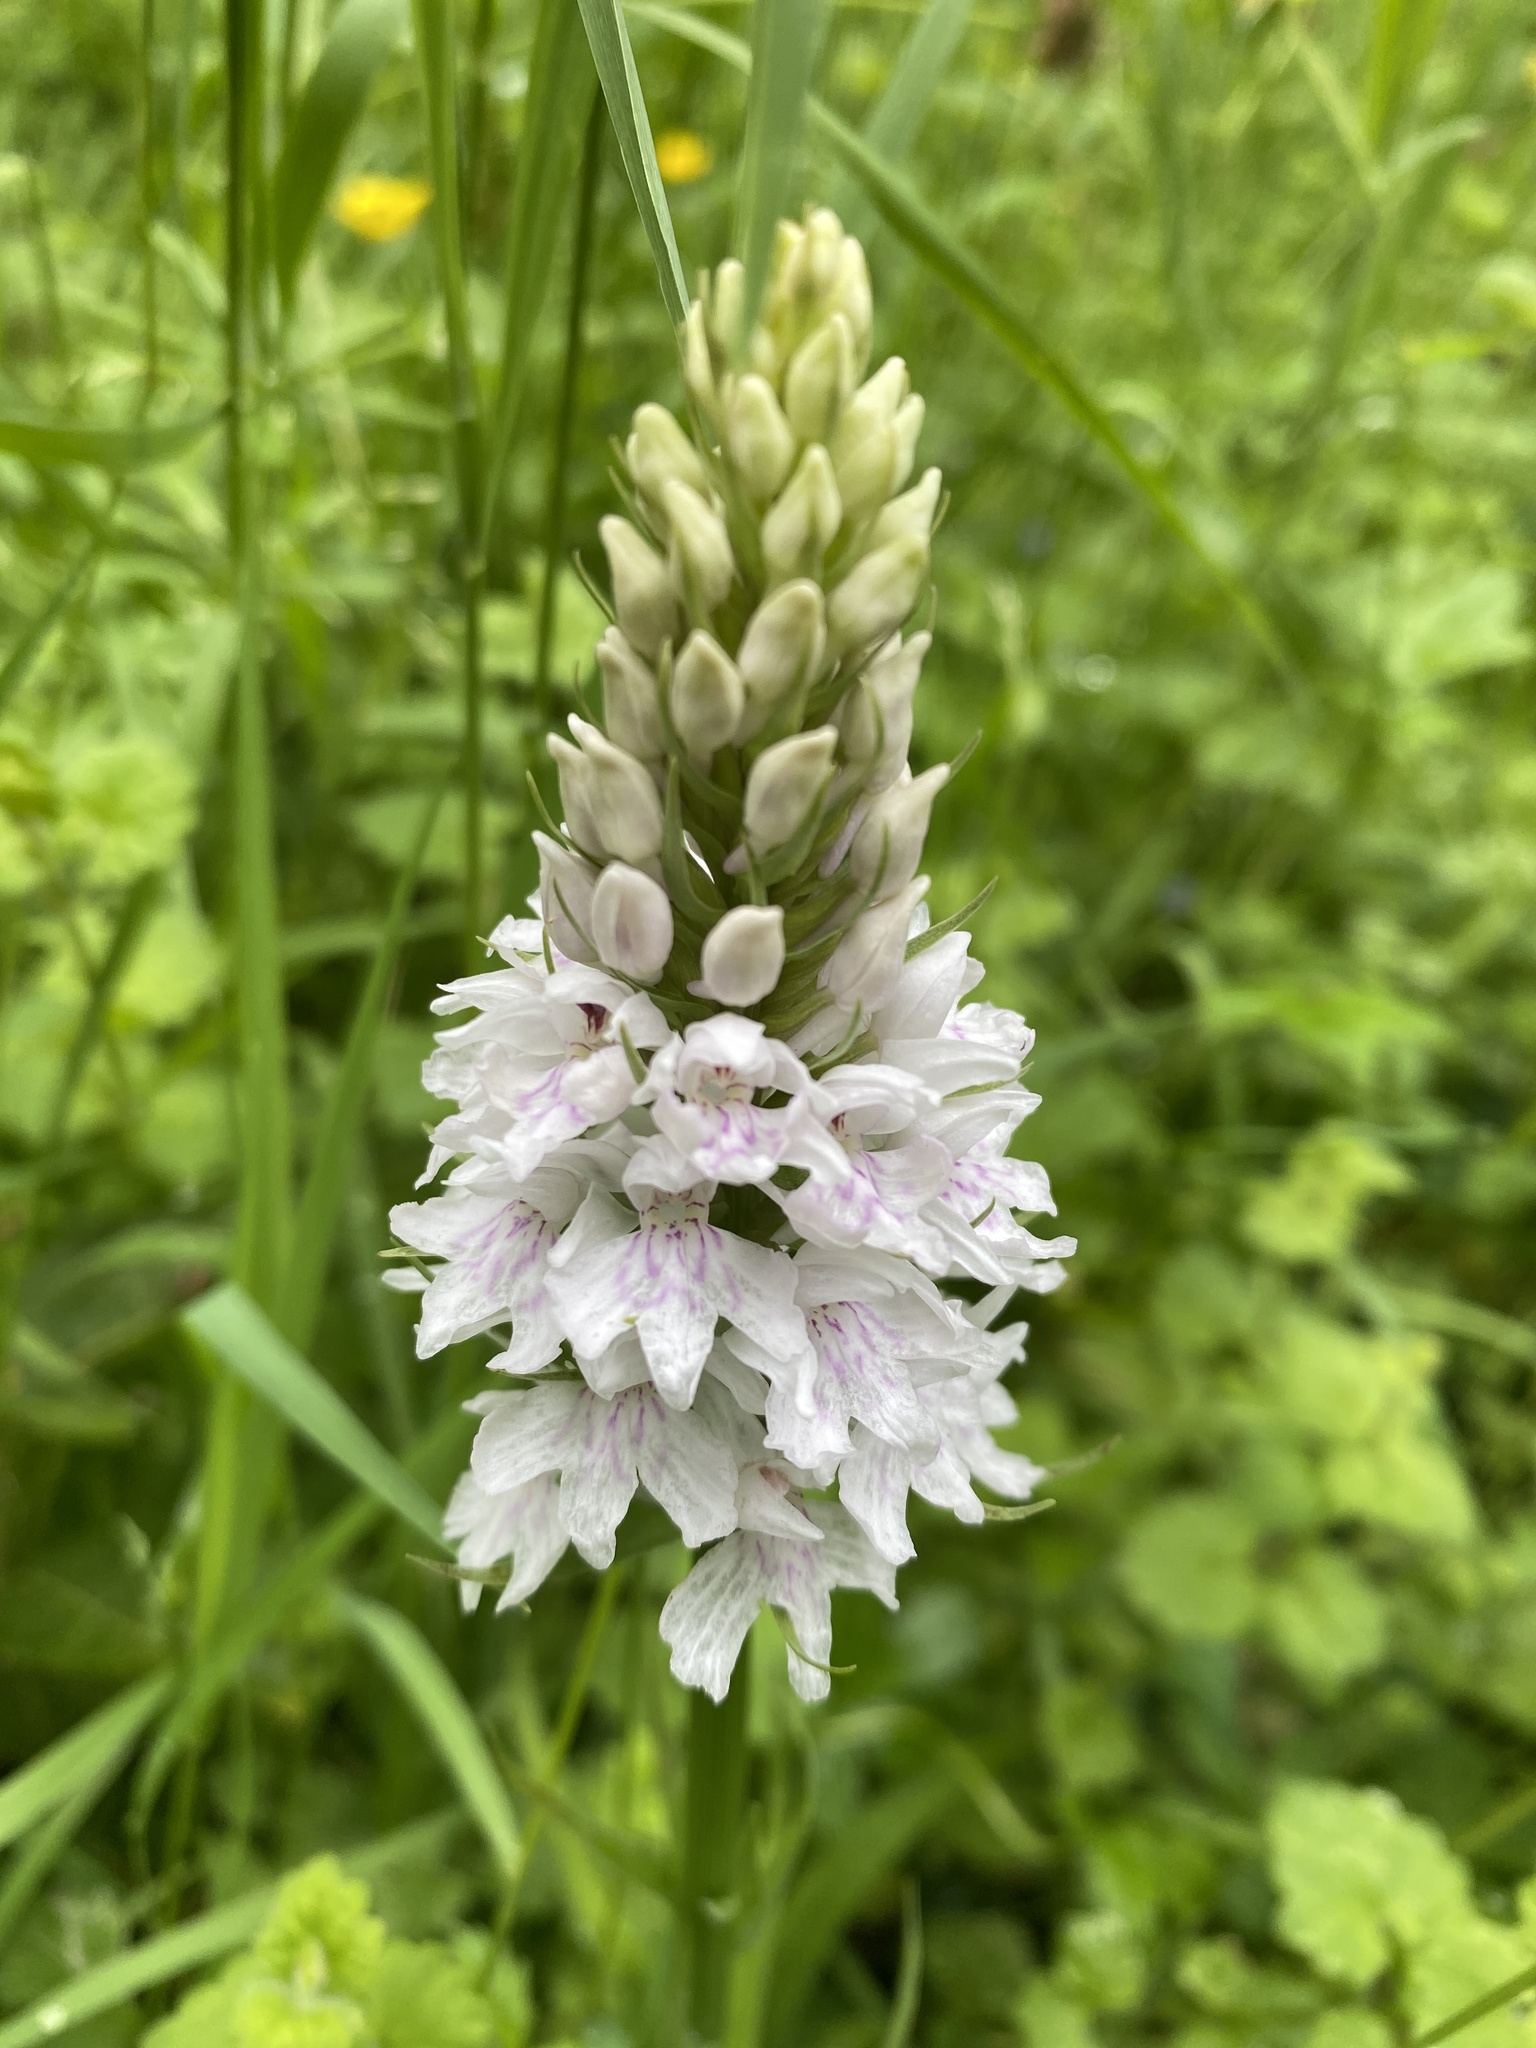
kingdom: Plantae
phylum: Tracheophyta
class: Liliopsida
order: Asparagales
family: Orchidaceae
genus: Dactylorhiza
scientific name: Dactylorhiza maculata
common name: Heath spotted-orchid
